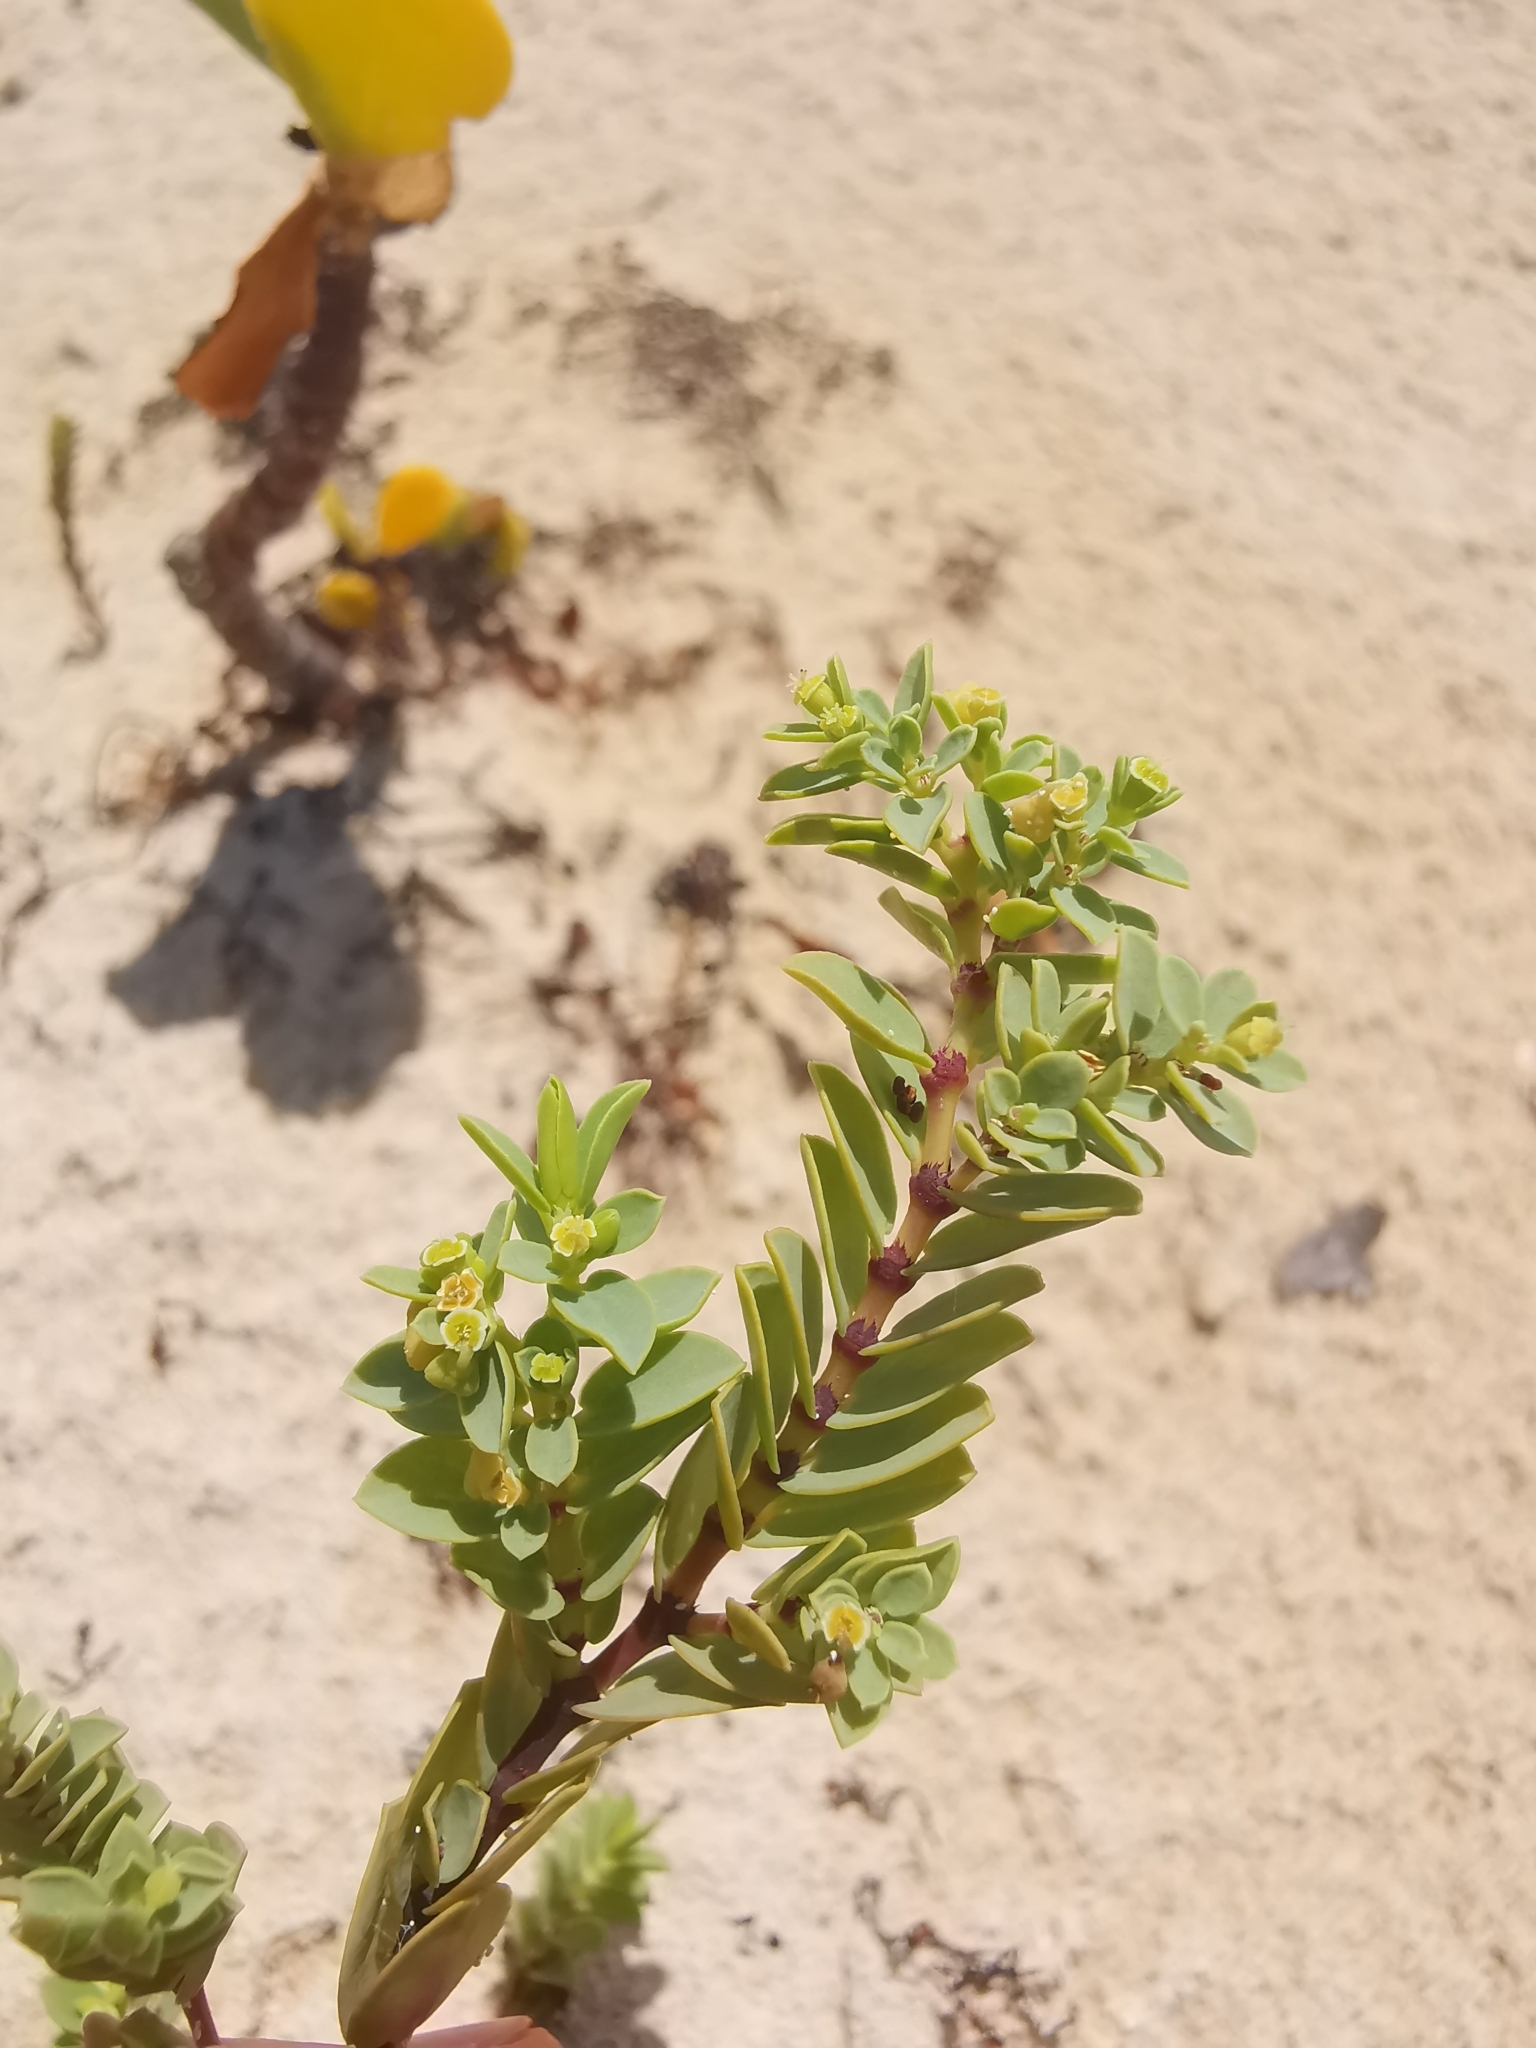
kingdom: Plantae
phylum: Tracheophyta
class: Magnoliopsida
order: Malpighiales
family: Euphorbiaceae
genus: Euphorbia
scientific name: Euphorbia mesembryanthemifolia
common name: Coastal beach sandmat
